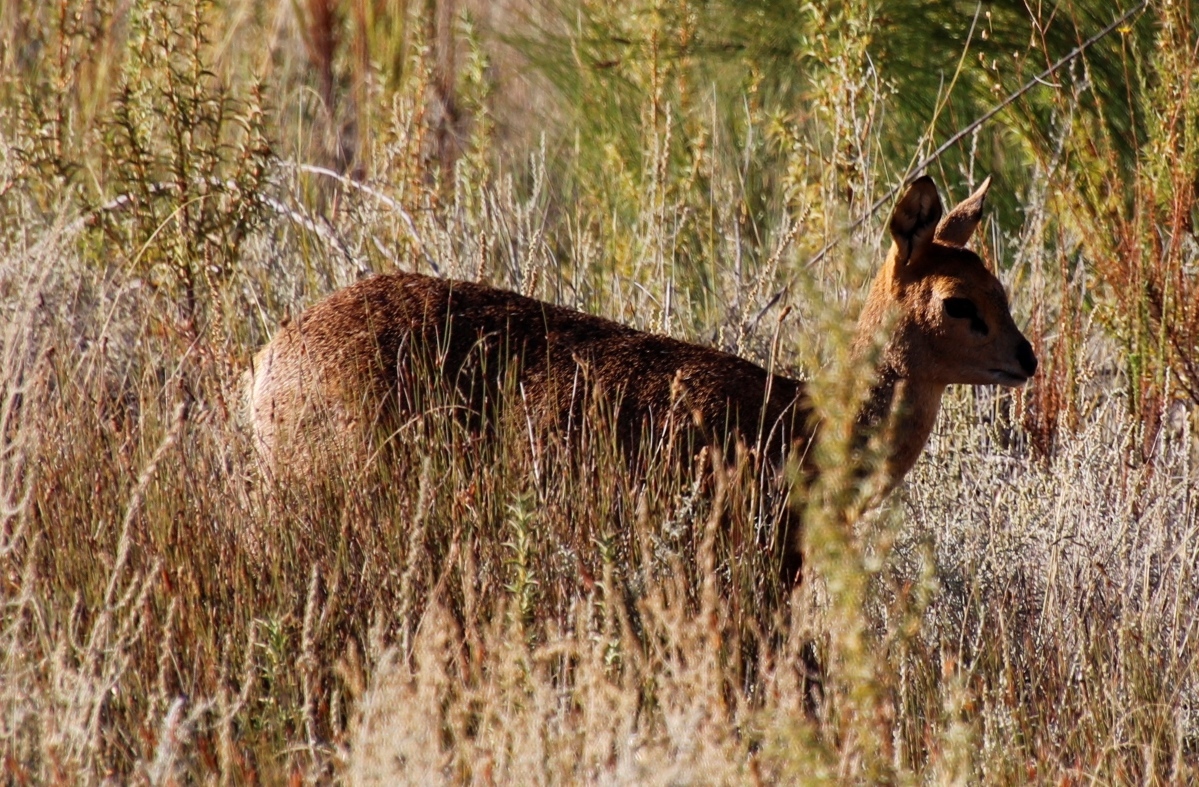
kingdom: Animalia
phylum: Chordata
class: Mammalia
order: Artiodactyla
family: Bovidae
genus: Oreotragus
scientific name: Oreotragus oreotragus
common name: Klipspringer
